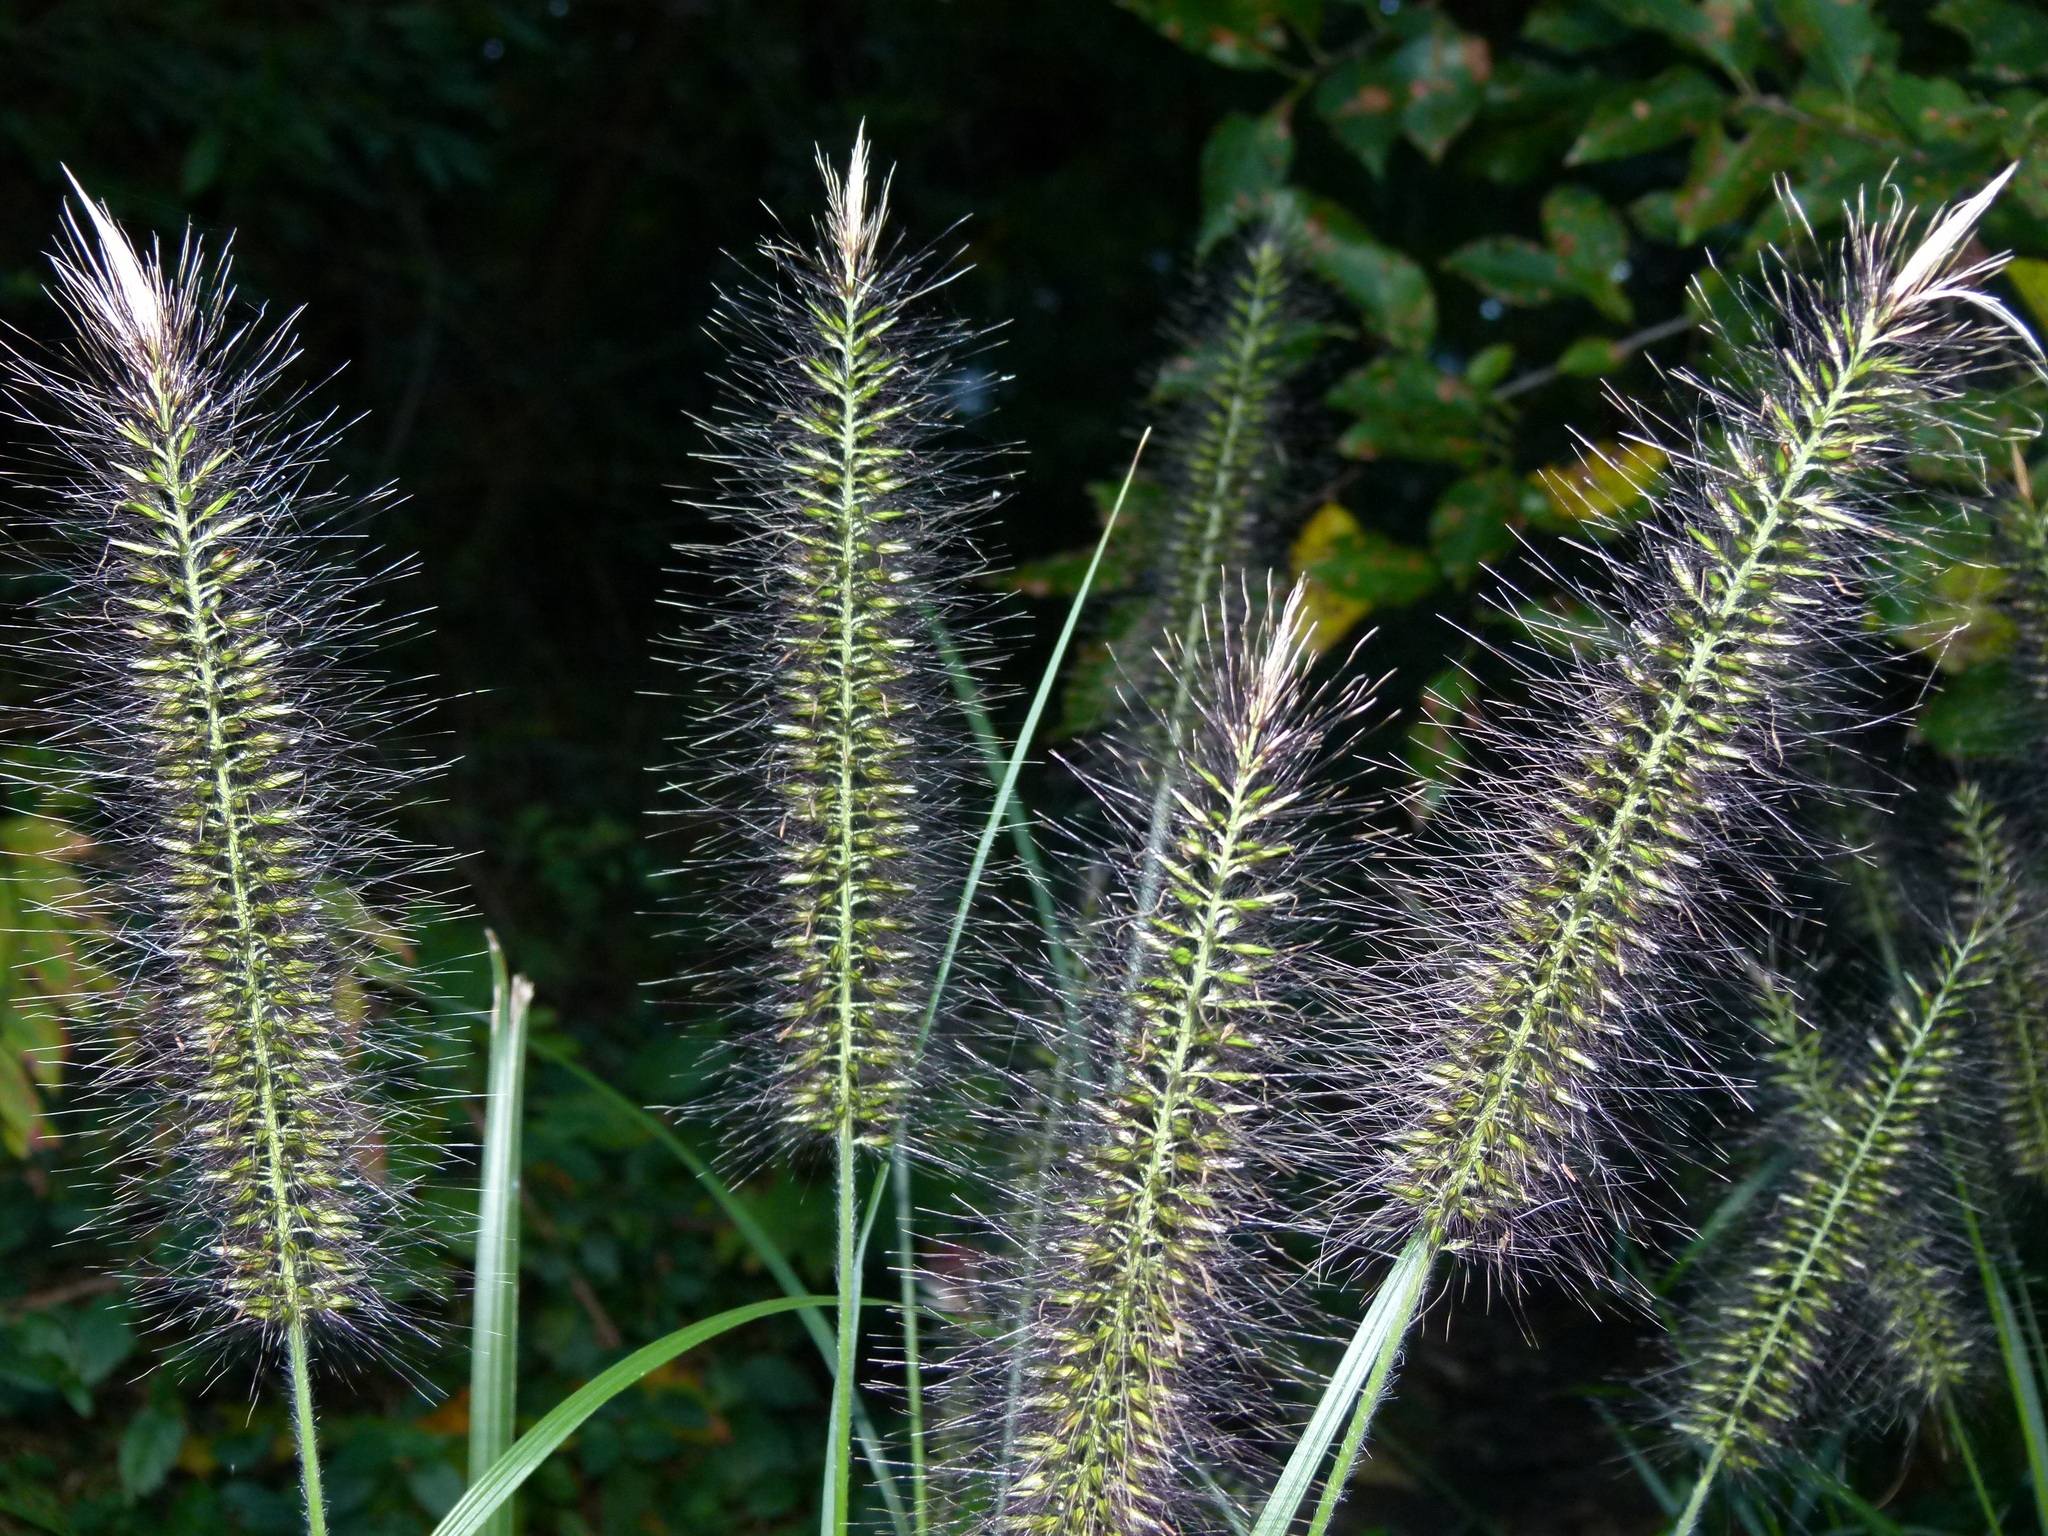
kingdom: Plantae
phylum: Tracheophyta
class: Liliopsida
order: Poales
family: Poaceae
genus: Cenchrus
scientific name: Cenchrus alopecuroides
